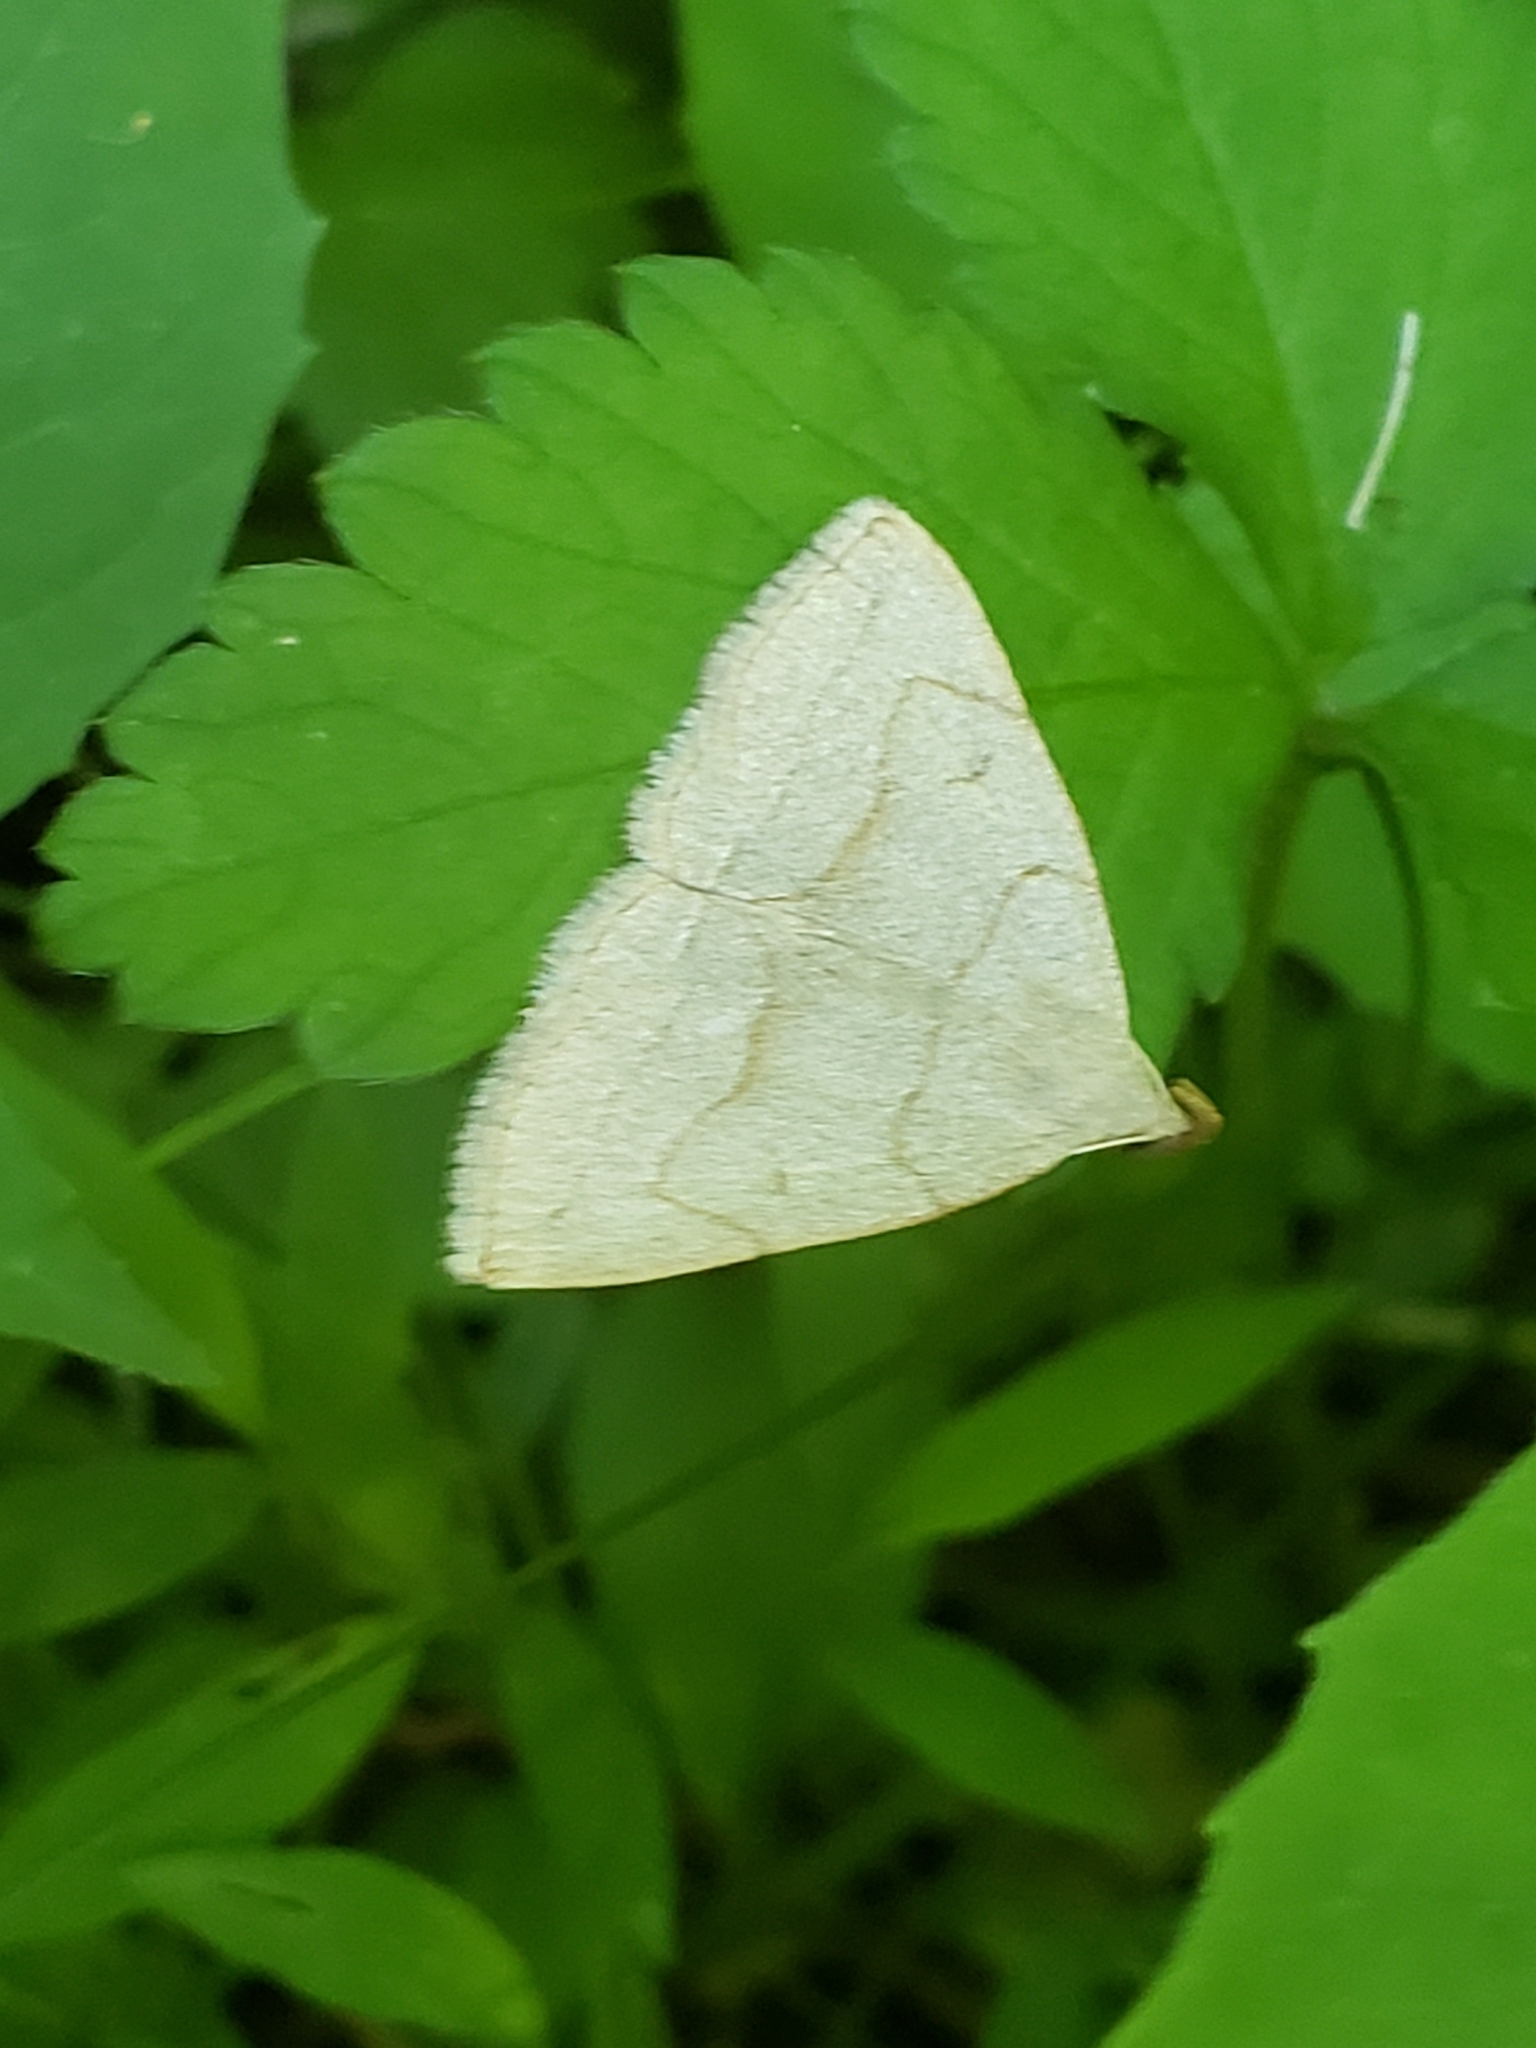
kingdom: Animalia
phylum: Arthropoda
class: Insecta
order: Lepidoptera
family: Erebidae
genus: Zanclognatha
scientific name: Zanclognatha pedipilalis
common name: Grayish fan-foot
